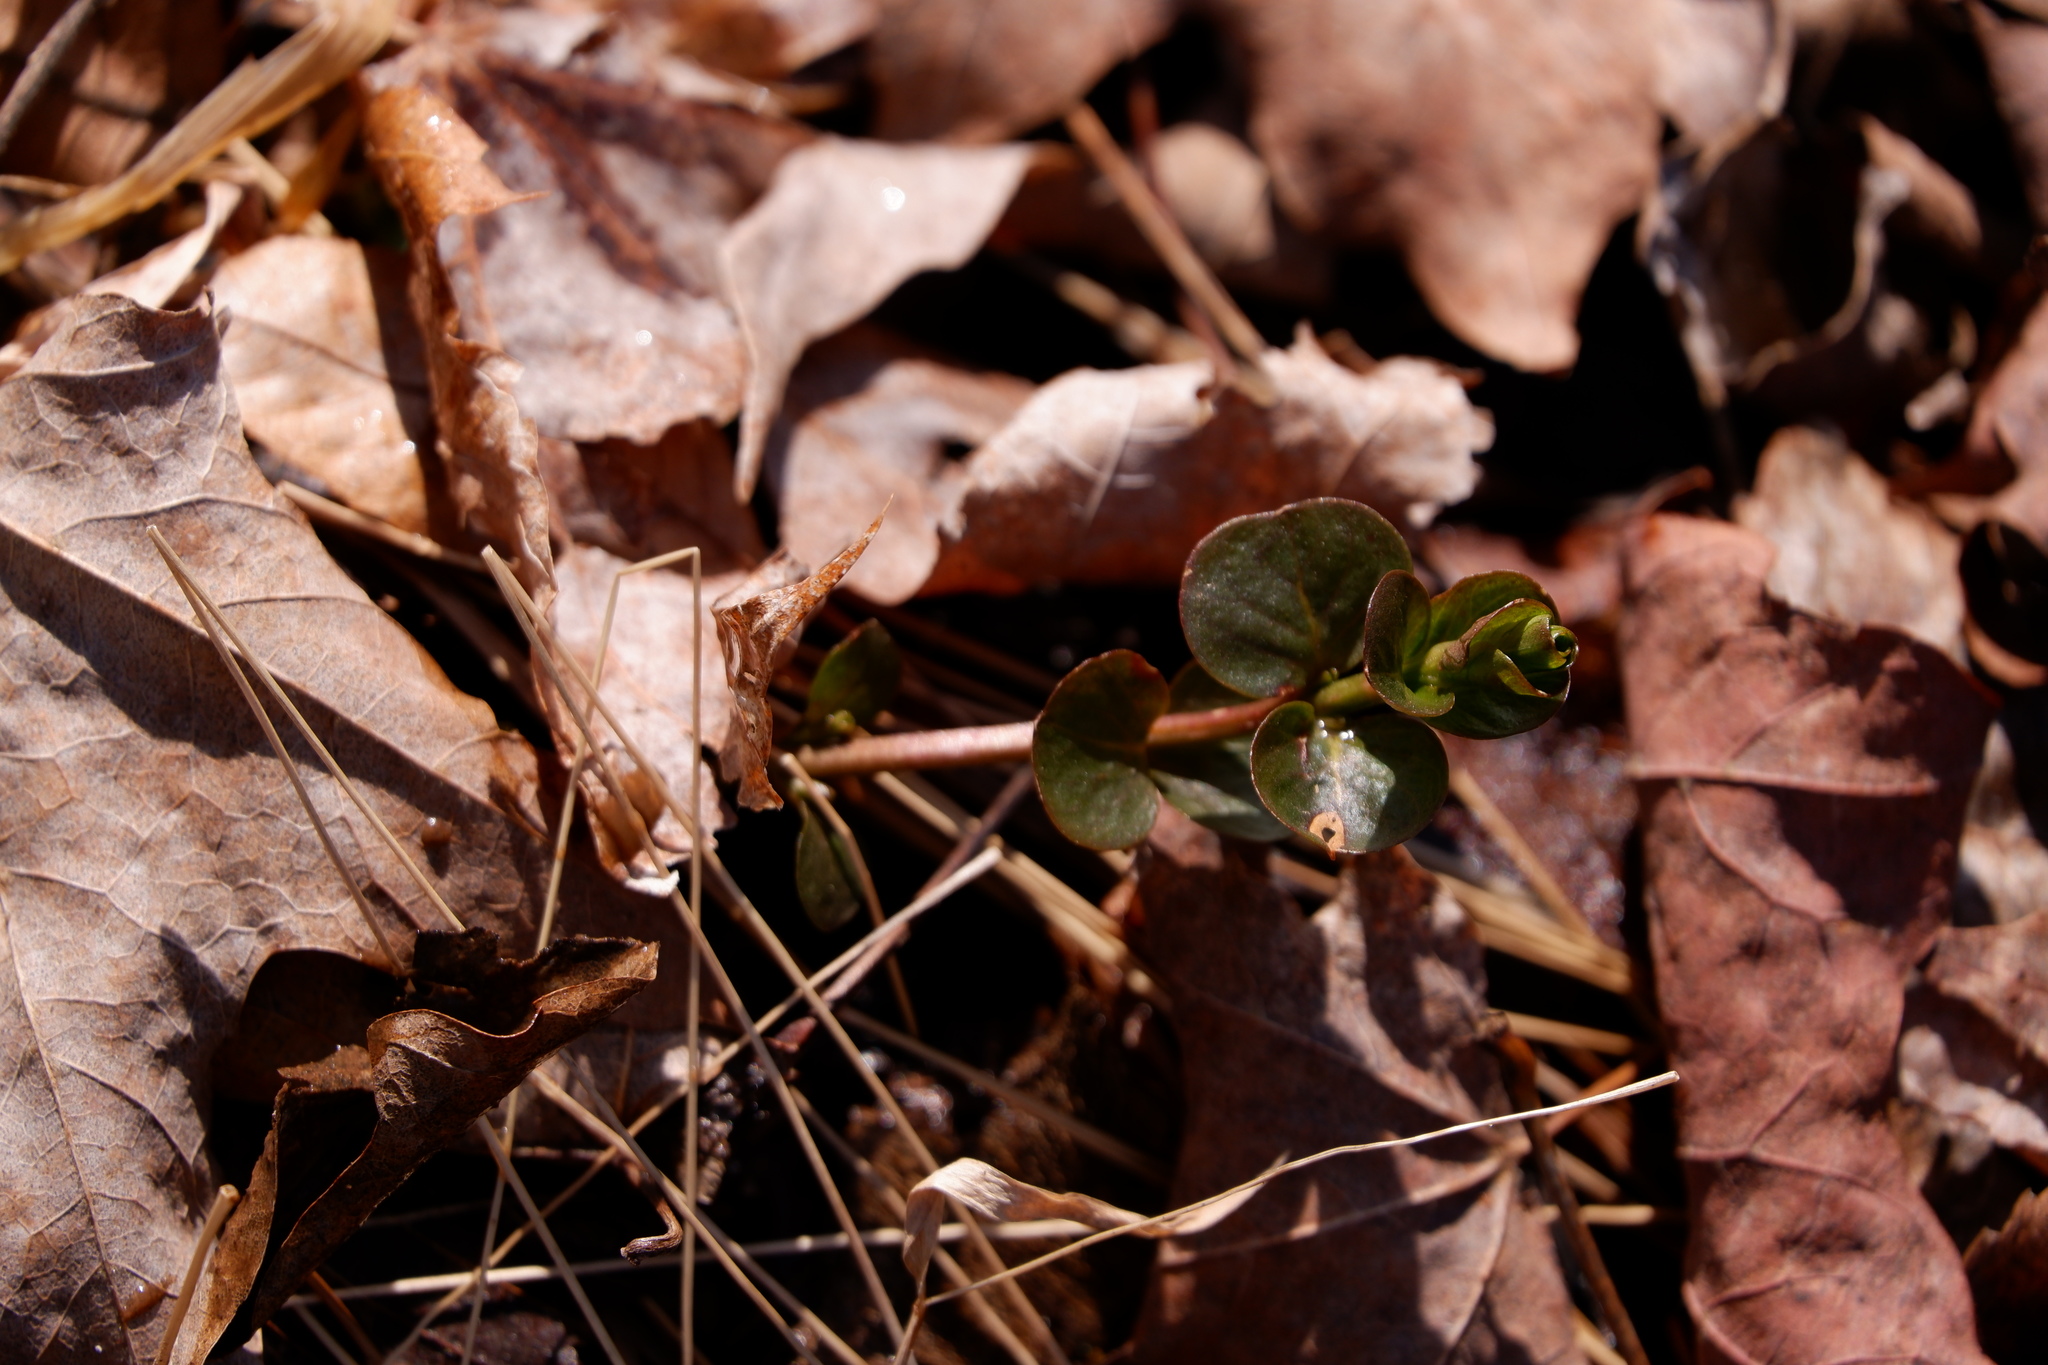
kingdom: Plantae
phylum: Tracheophyta
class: Magnoliopsida
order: Ericales
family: Primulaceae
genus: Lysimachia
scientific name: Lysimachia nummularia
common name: Moneywort
